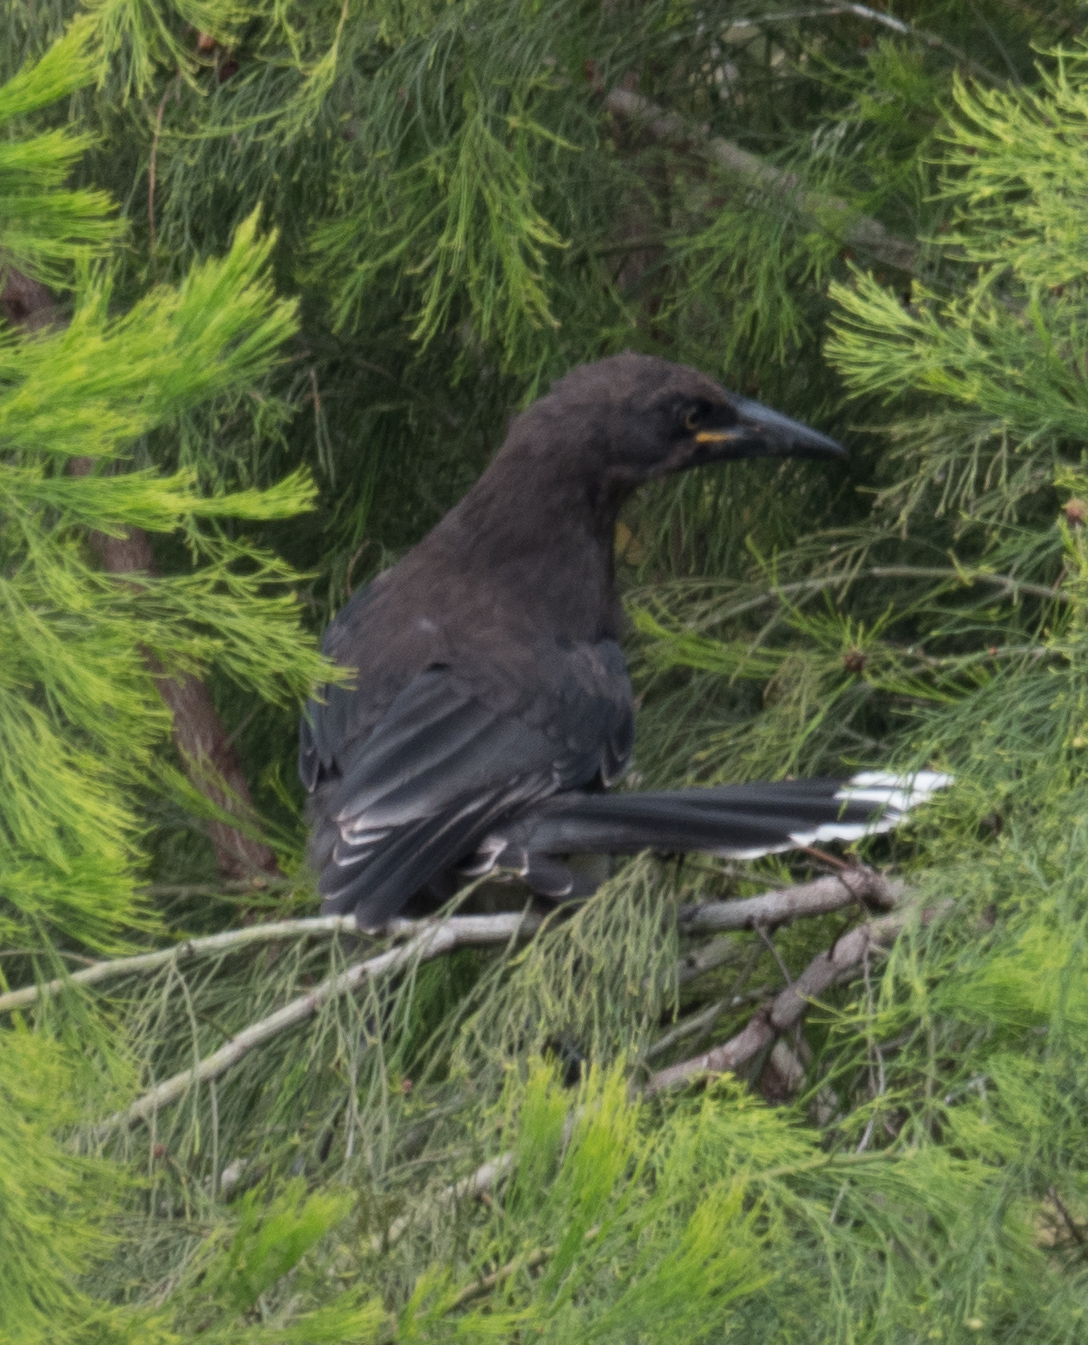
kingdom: Animalia
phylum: Chordata
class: Aves
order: Passeriformes
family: Cracticidae
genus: Strepera
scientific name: Strepera versicolor
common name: Grey currawong
